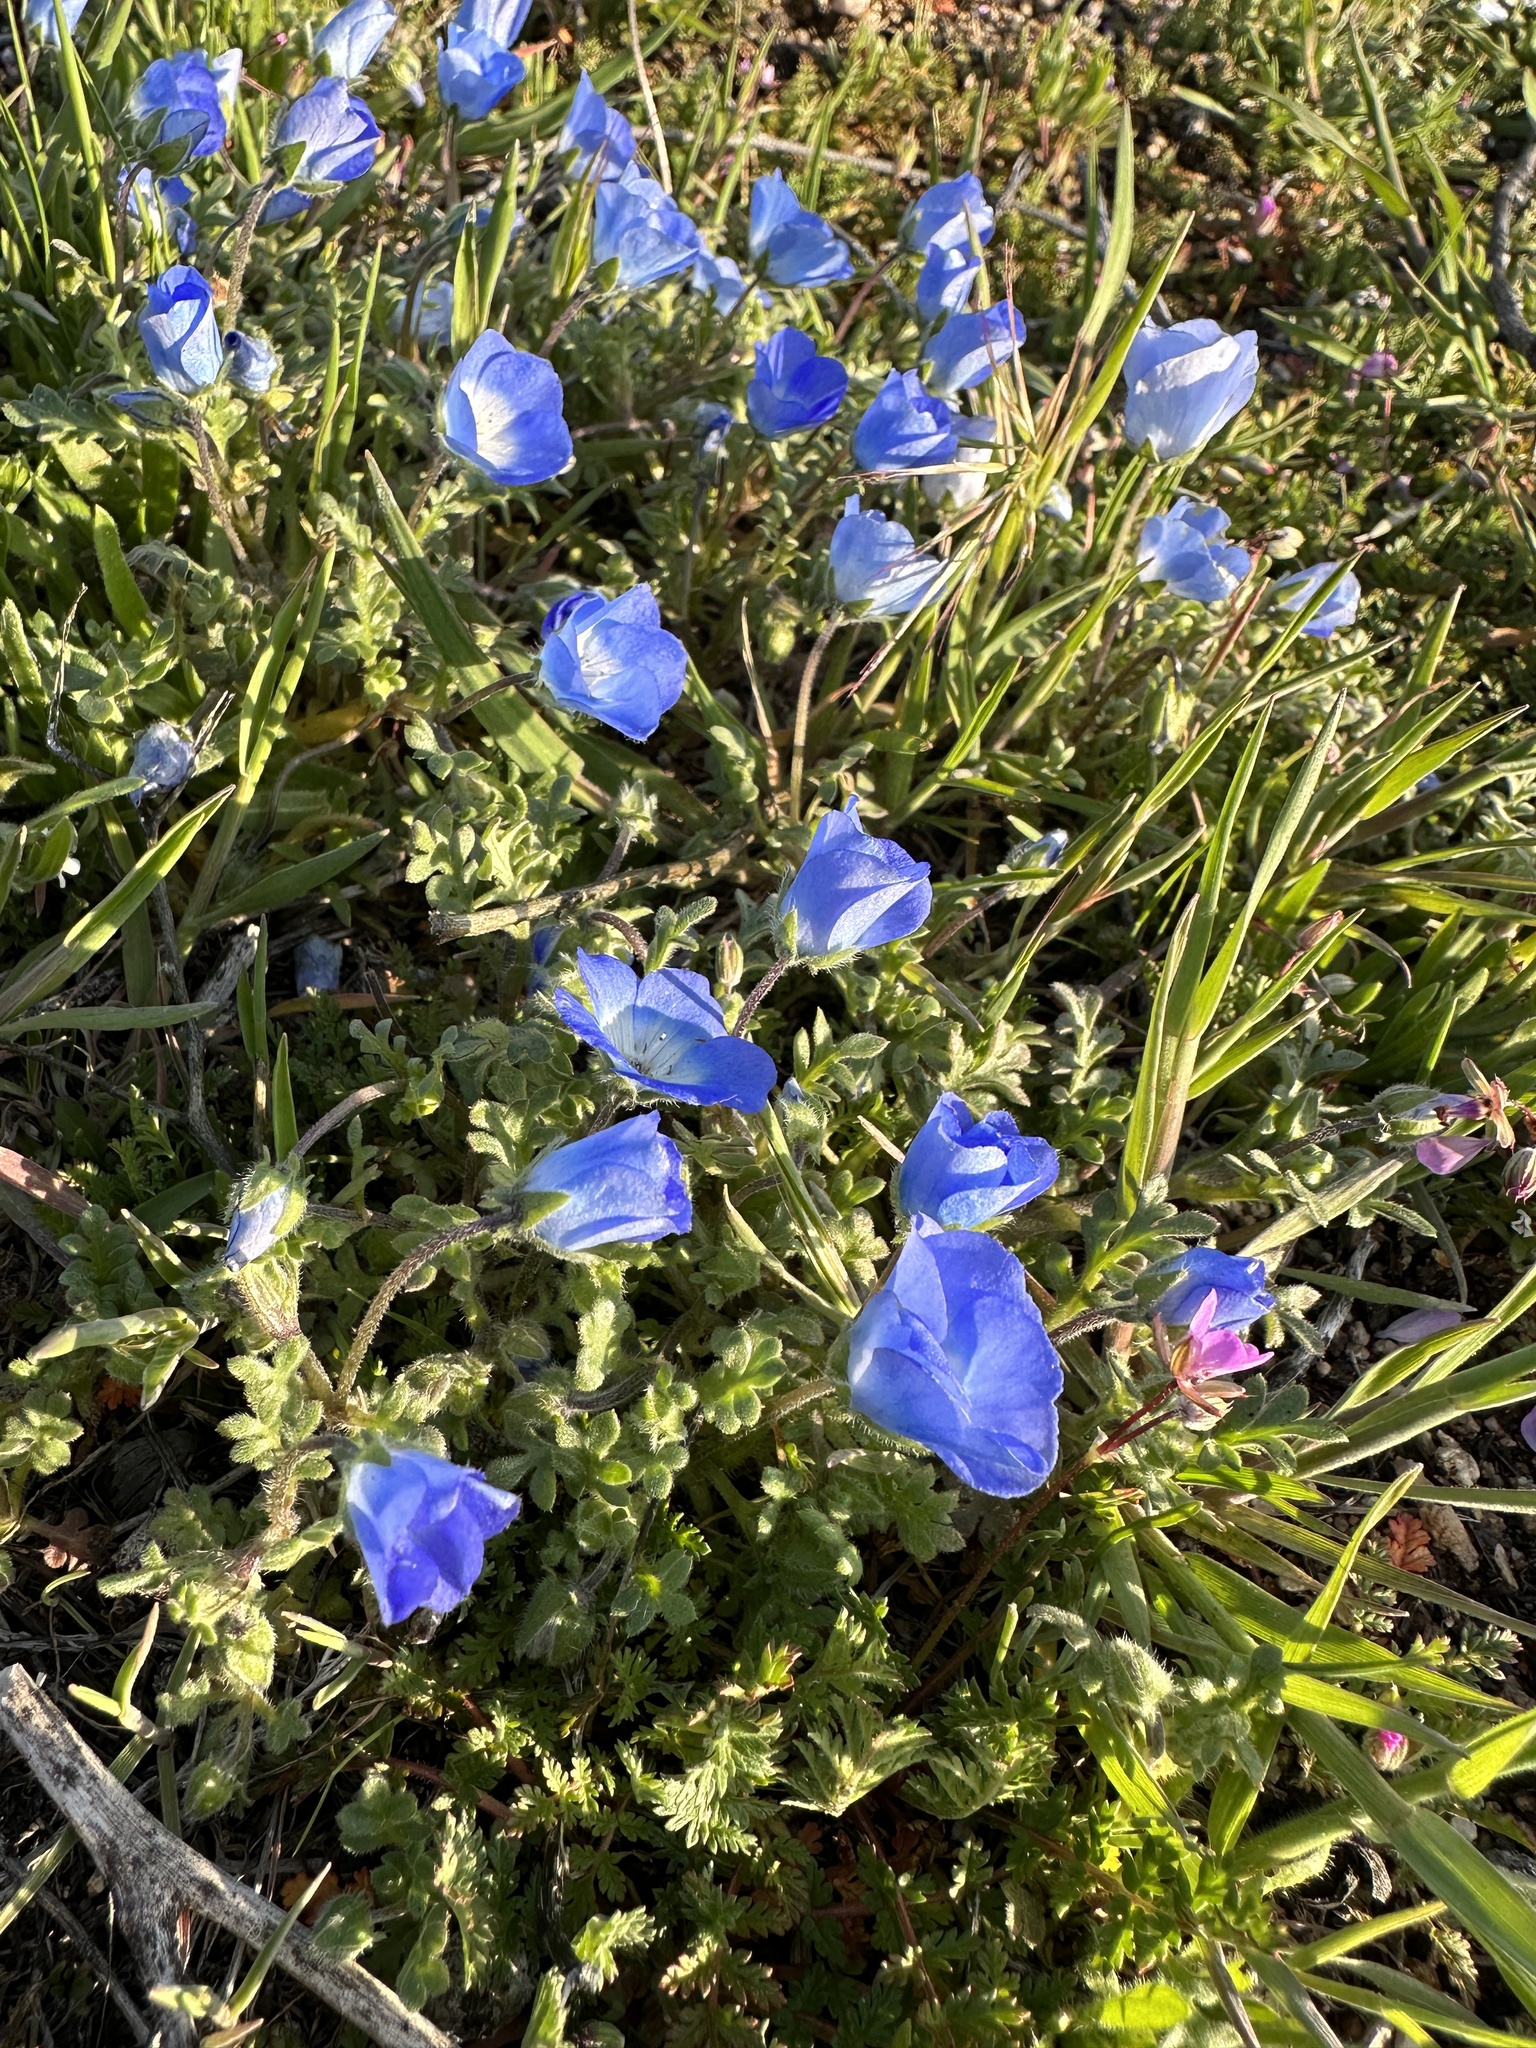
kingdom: Plantae
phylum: Tracheophyta
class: Magnoliopsida
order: Boraginales
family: Hydrophyllaceae
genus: Nemophila
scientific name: Nemophila menziesii
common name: Baby's-blue-eyes
